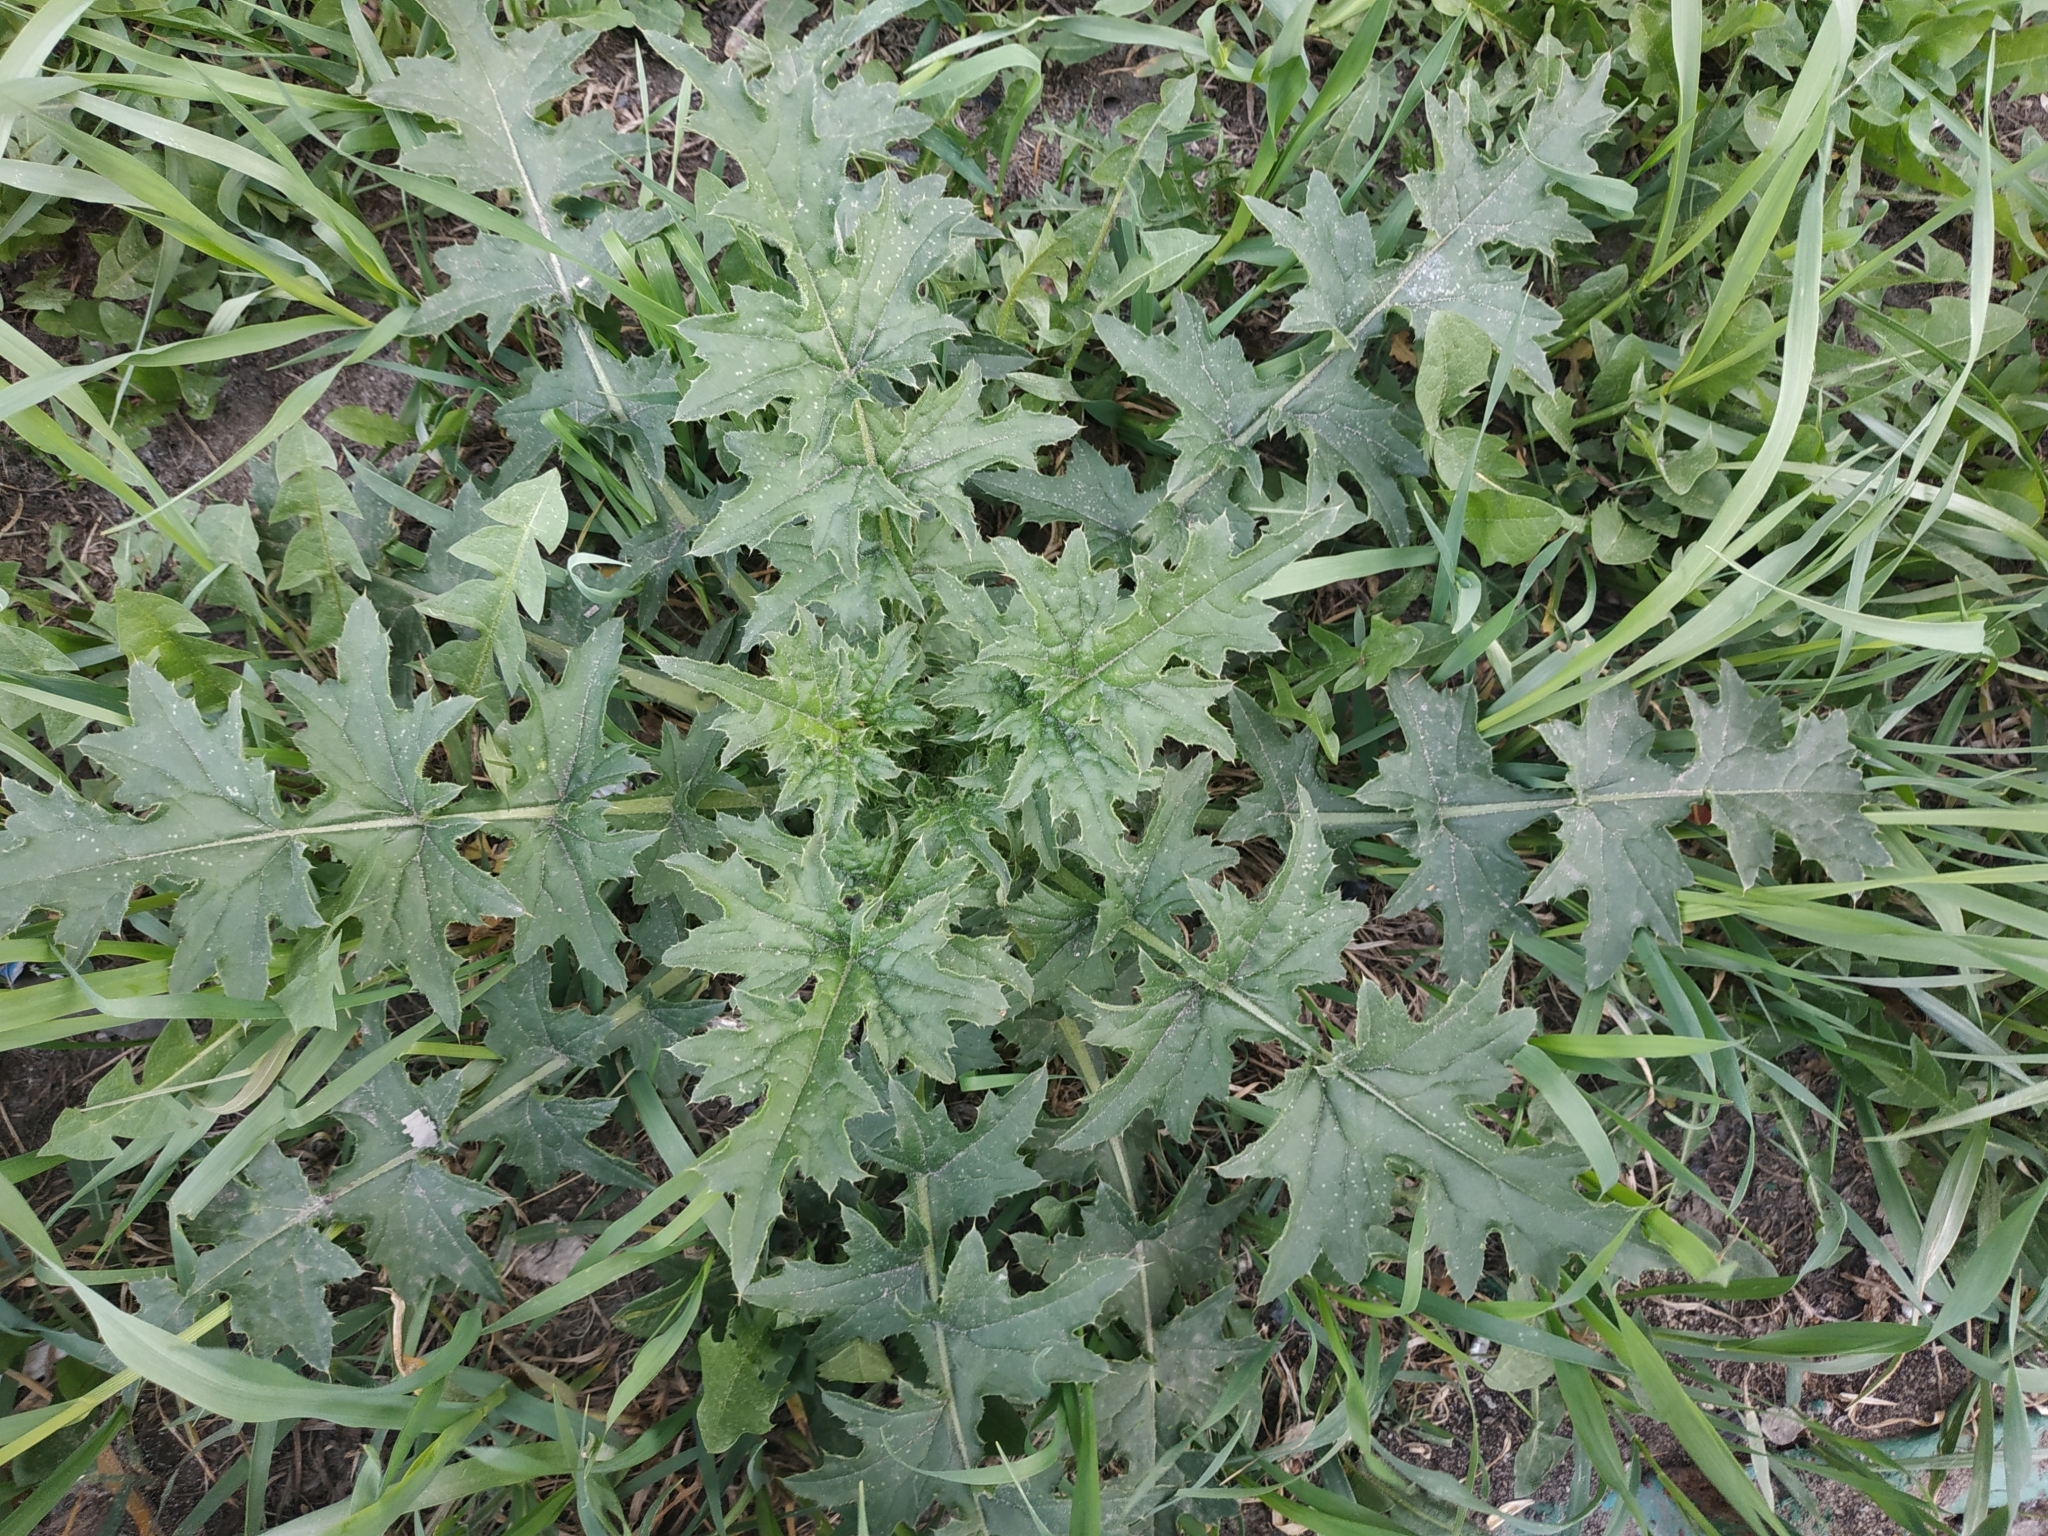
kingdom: Plantae
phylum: Tracheophyta
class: Magnoliopsida
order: Asterales
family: Asteraceae
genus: Carduus
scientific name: Carduus crispus
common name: Welted thistle
